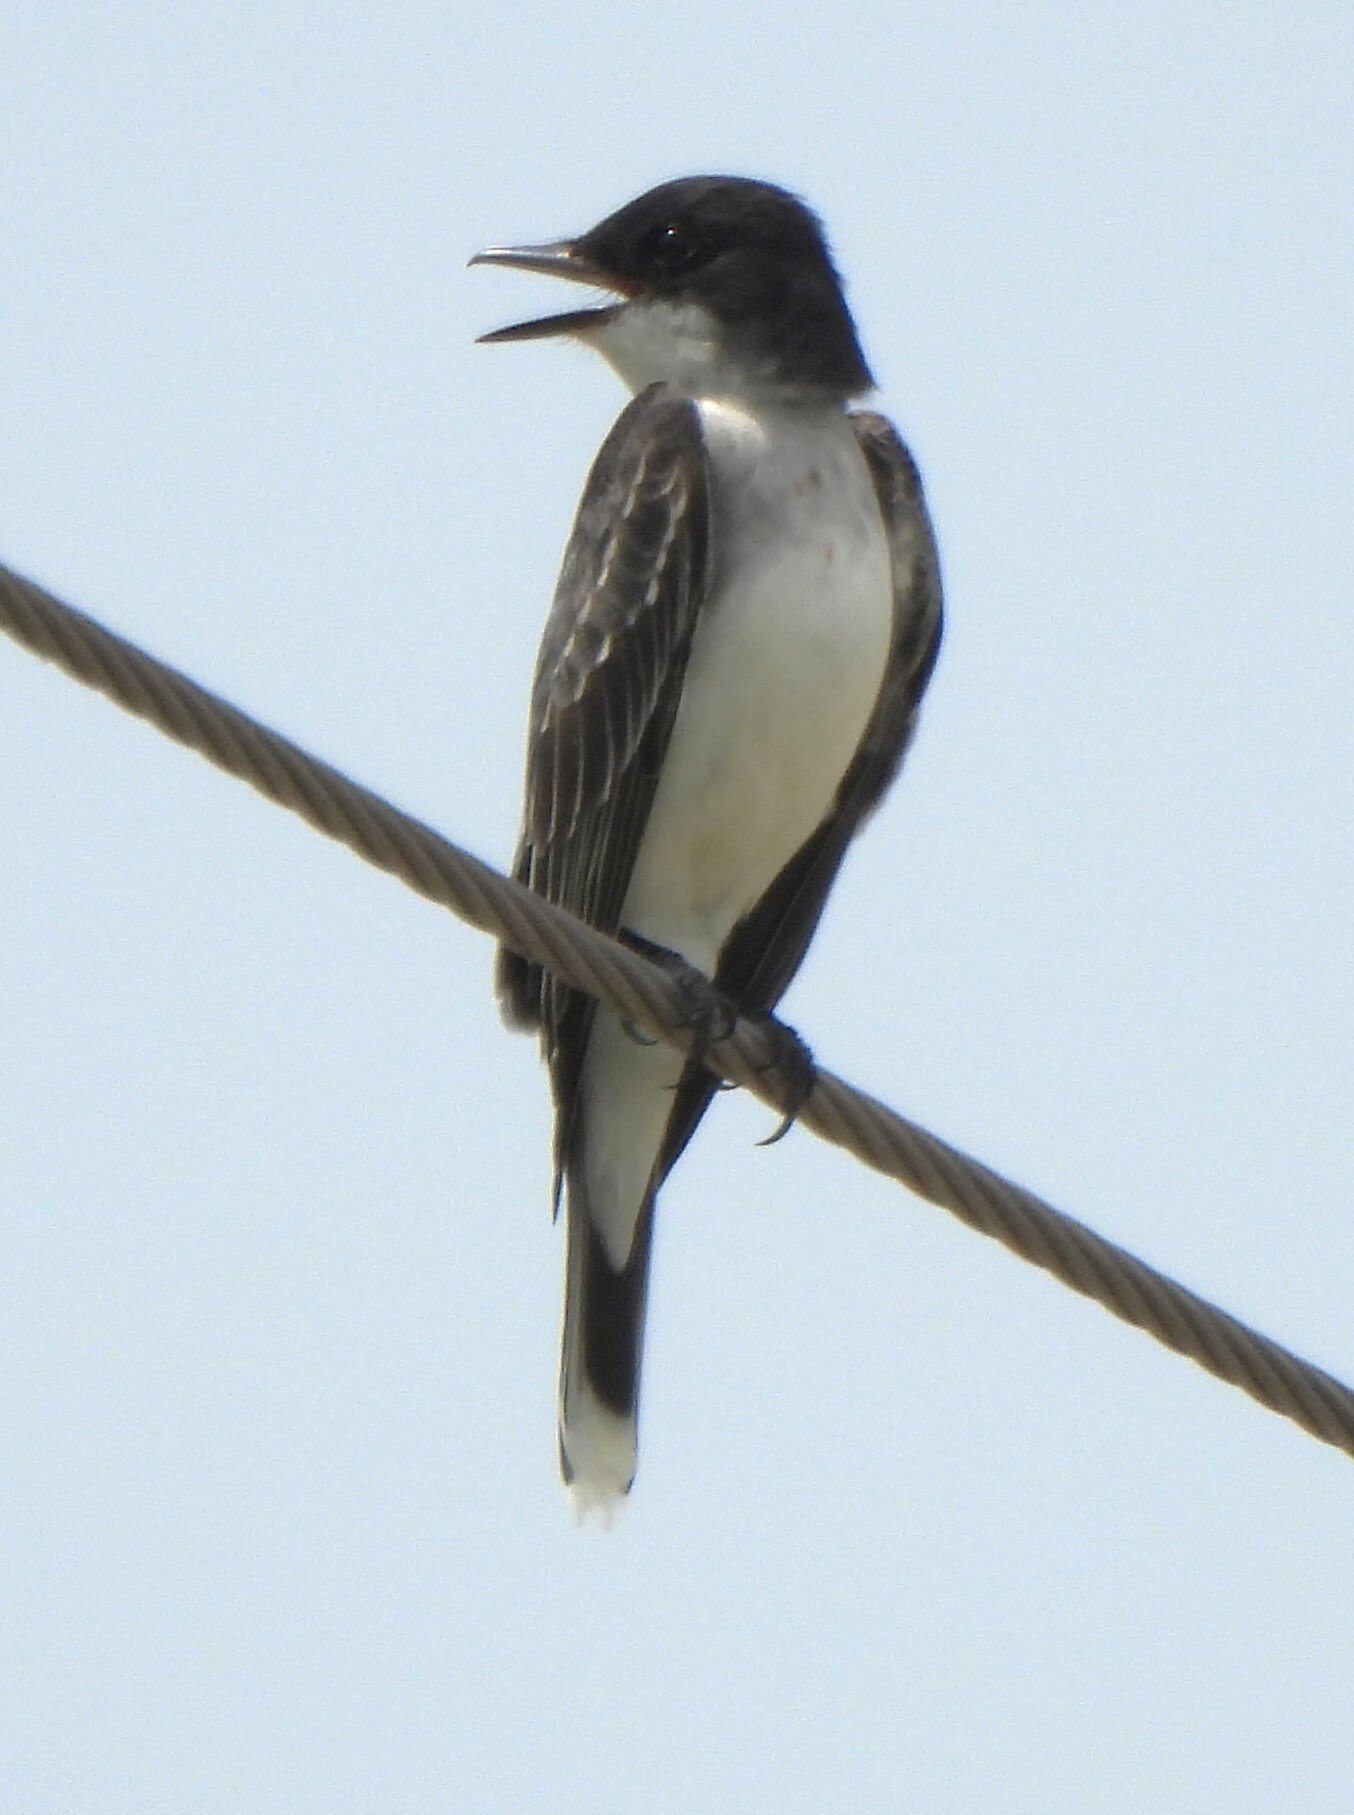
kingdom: Animalia
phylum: Chordata
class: Aves
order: Passeriformes
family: Tyrannidae
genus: Tyrannus
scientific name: Tyrannus tyrannus
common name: Eastern kingbird
